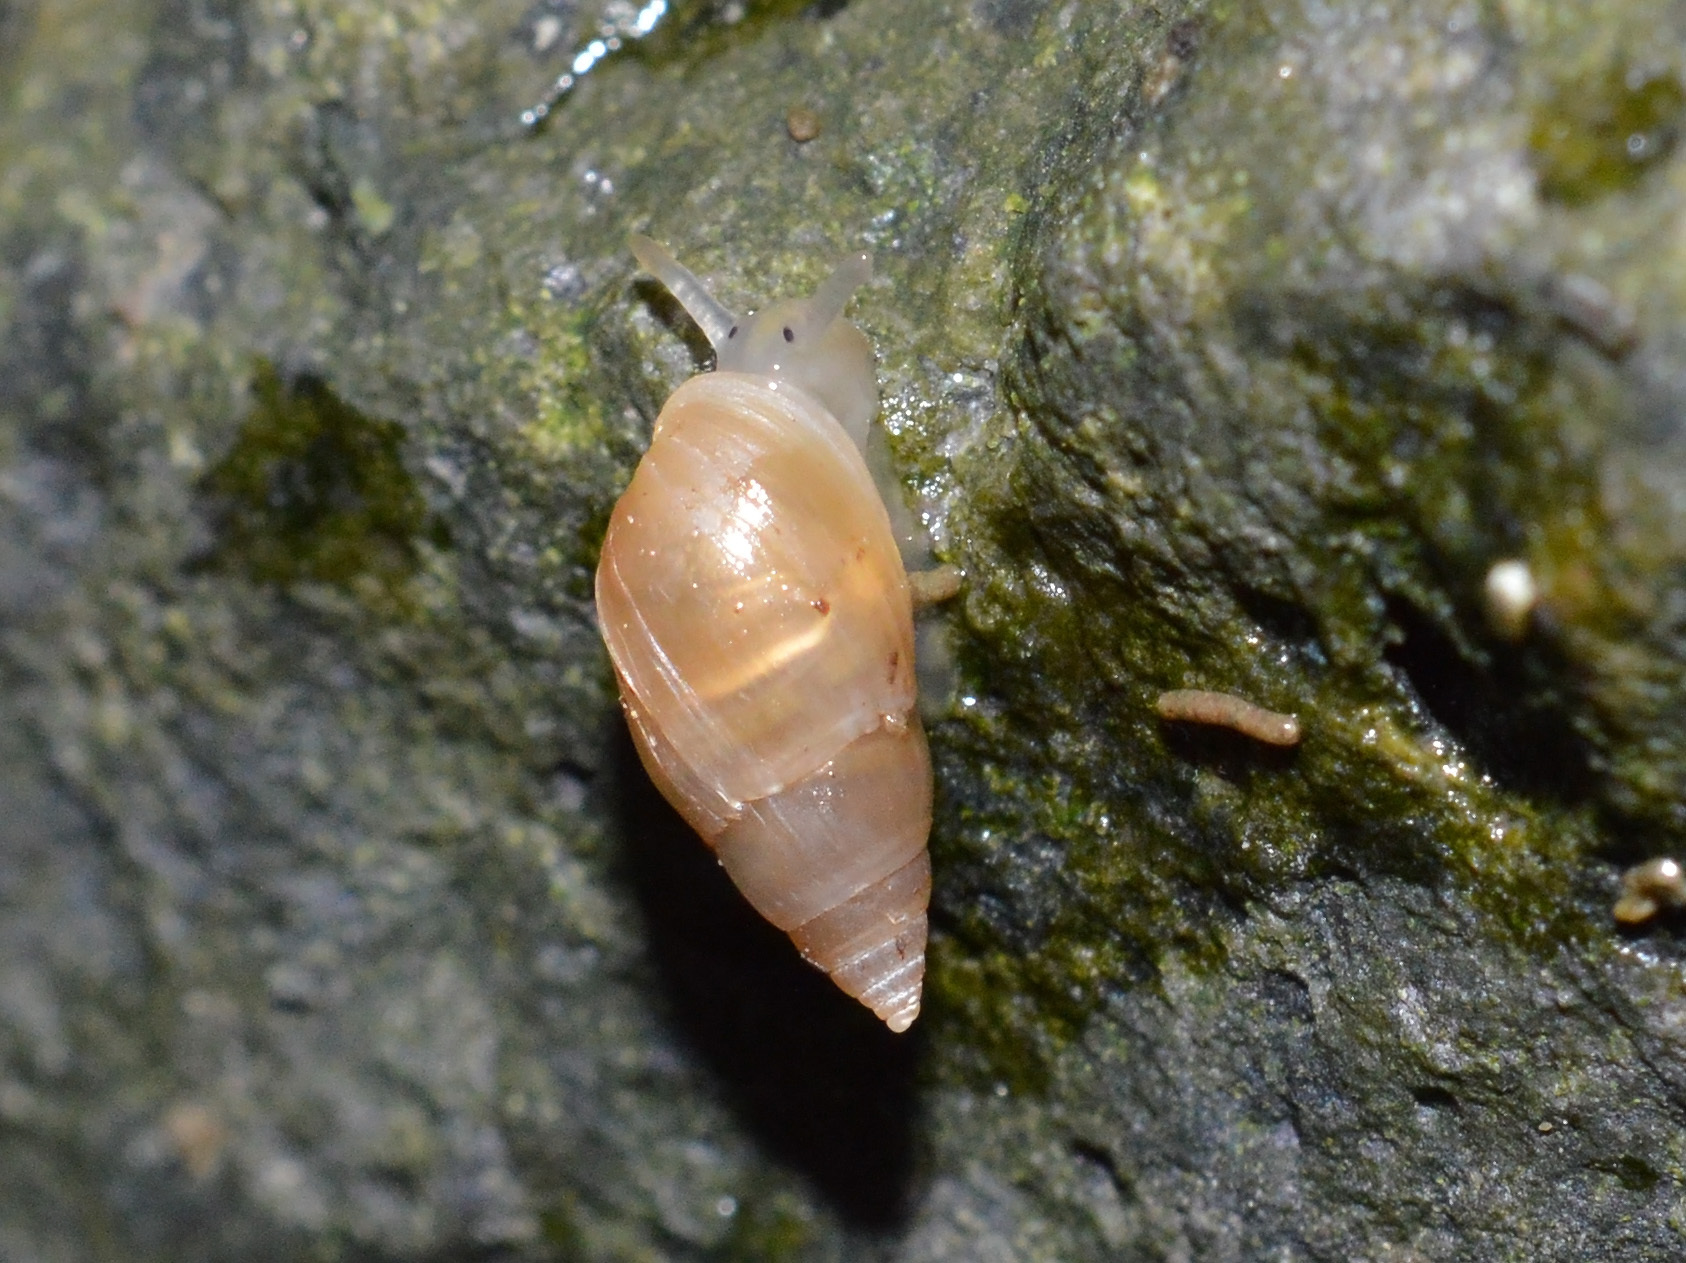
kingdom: Animalia
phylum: Mollusca
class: Gastropoda
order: Ellobiida
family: Ellobiidae
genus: Myosotella
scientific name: Myosotella myosotis
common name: Mouse-eared snail
